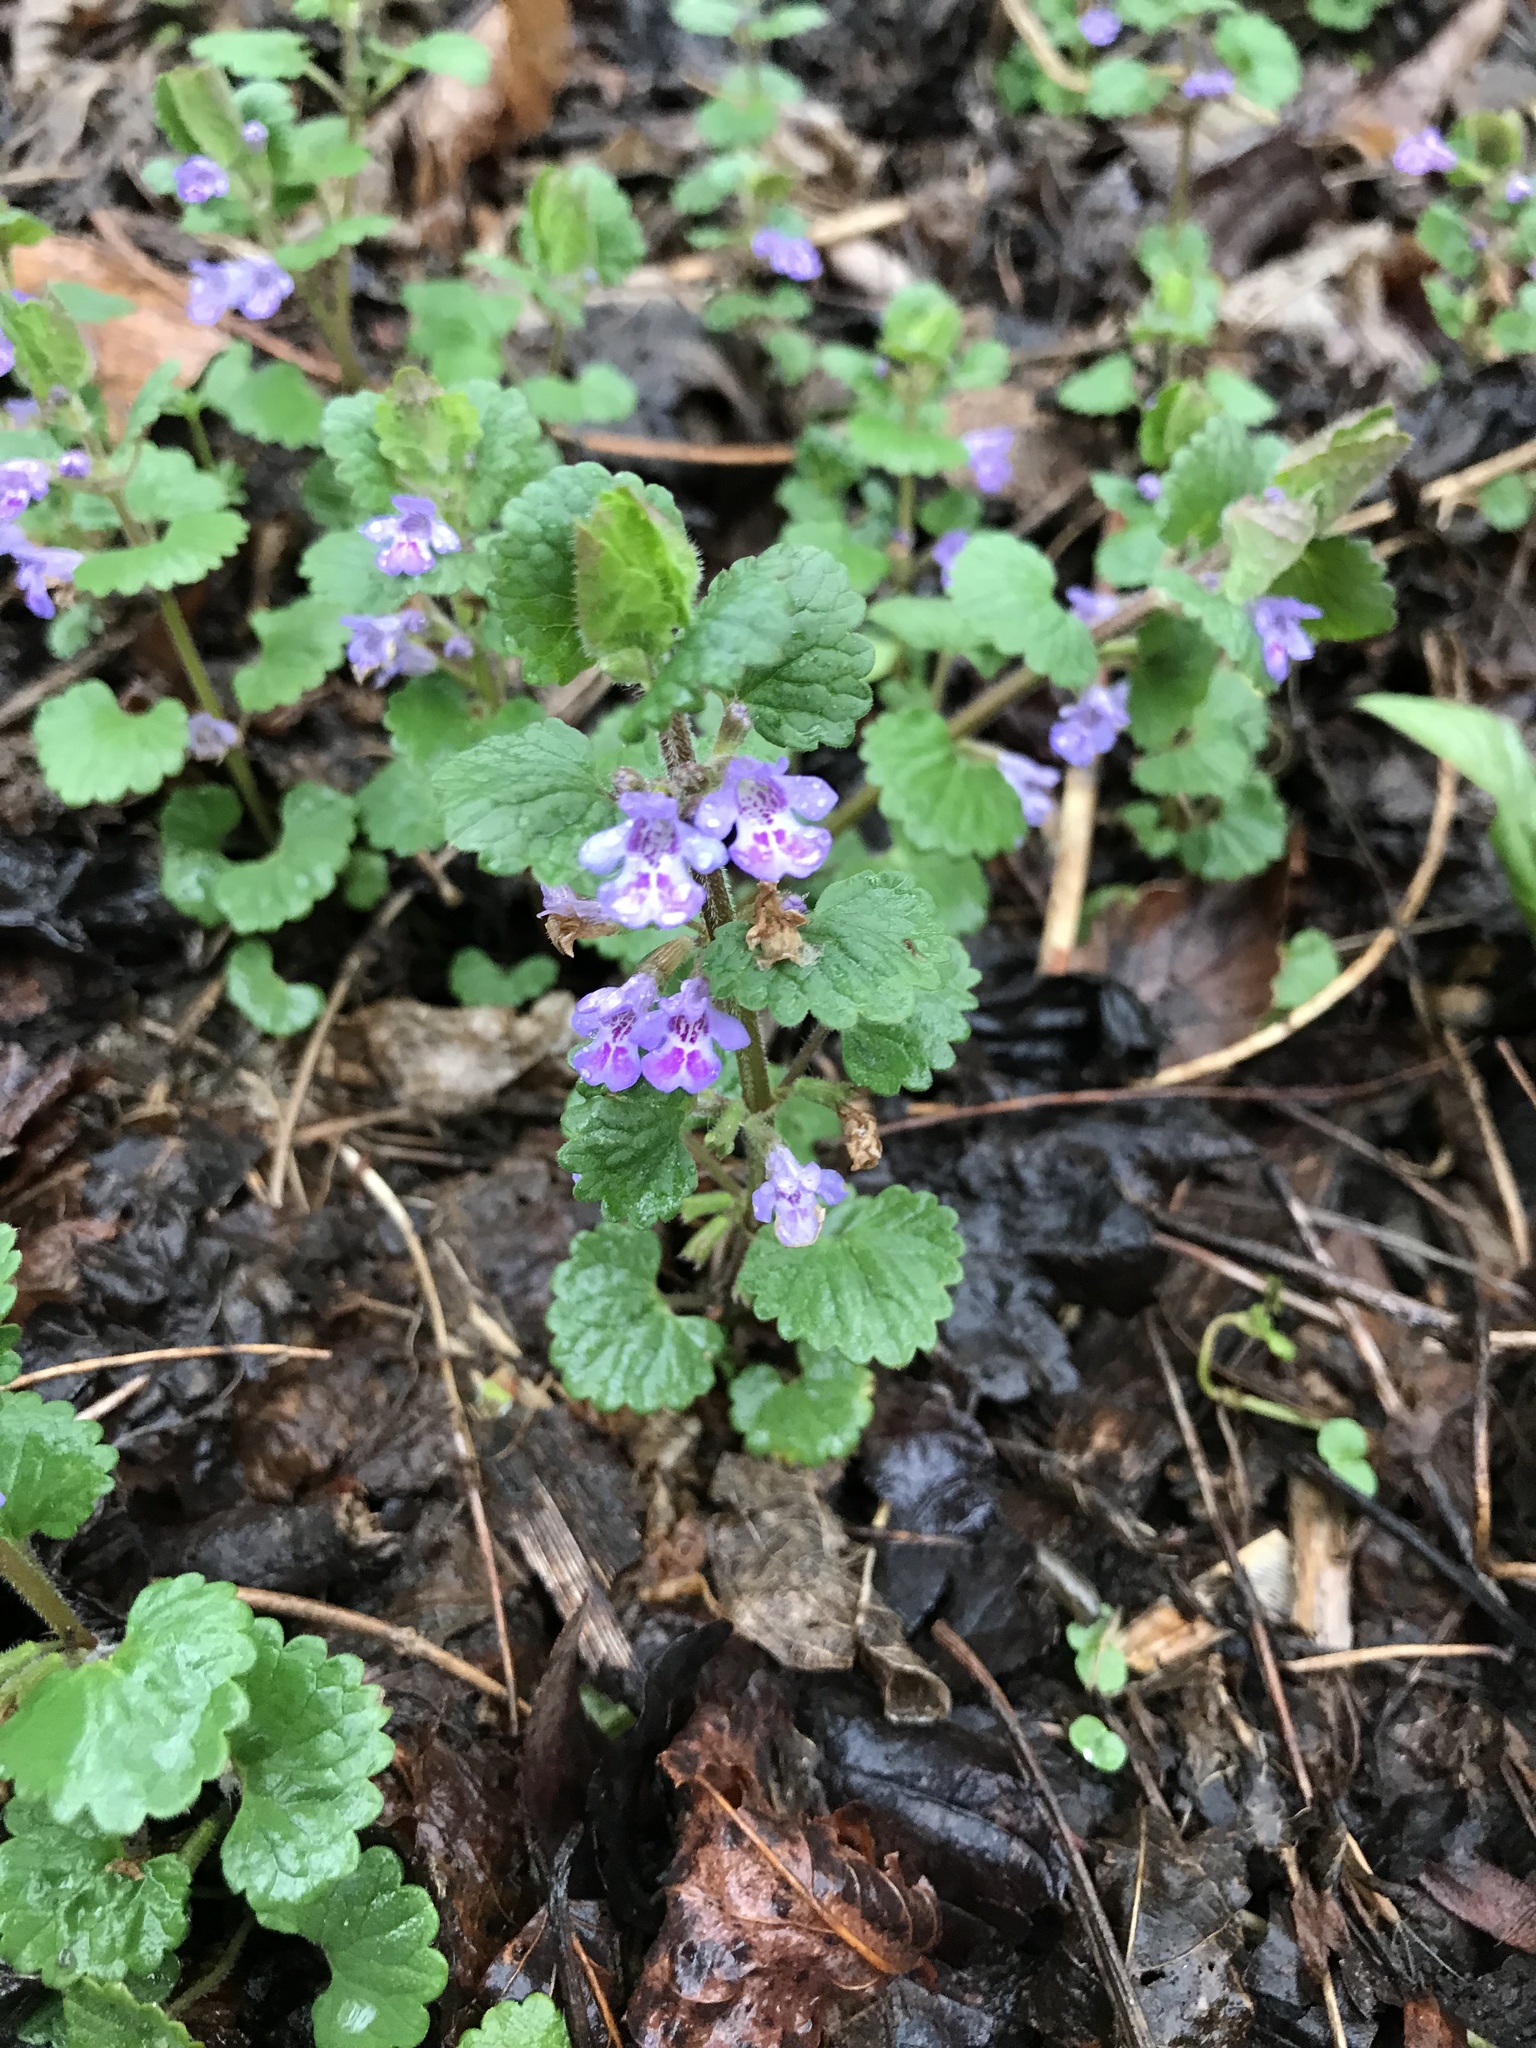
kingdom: Plantae
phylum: Tracheophyta
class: Magnoliopsida
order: Lamiales
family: Lamiaceae
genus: Glechoma
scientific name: Glechoma hederacea
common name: Ground ivy
